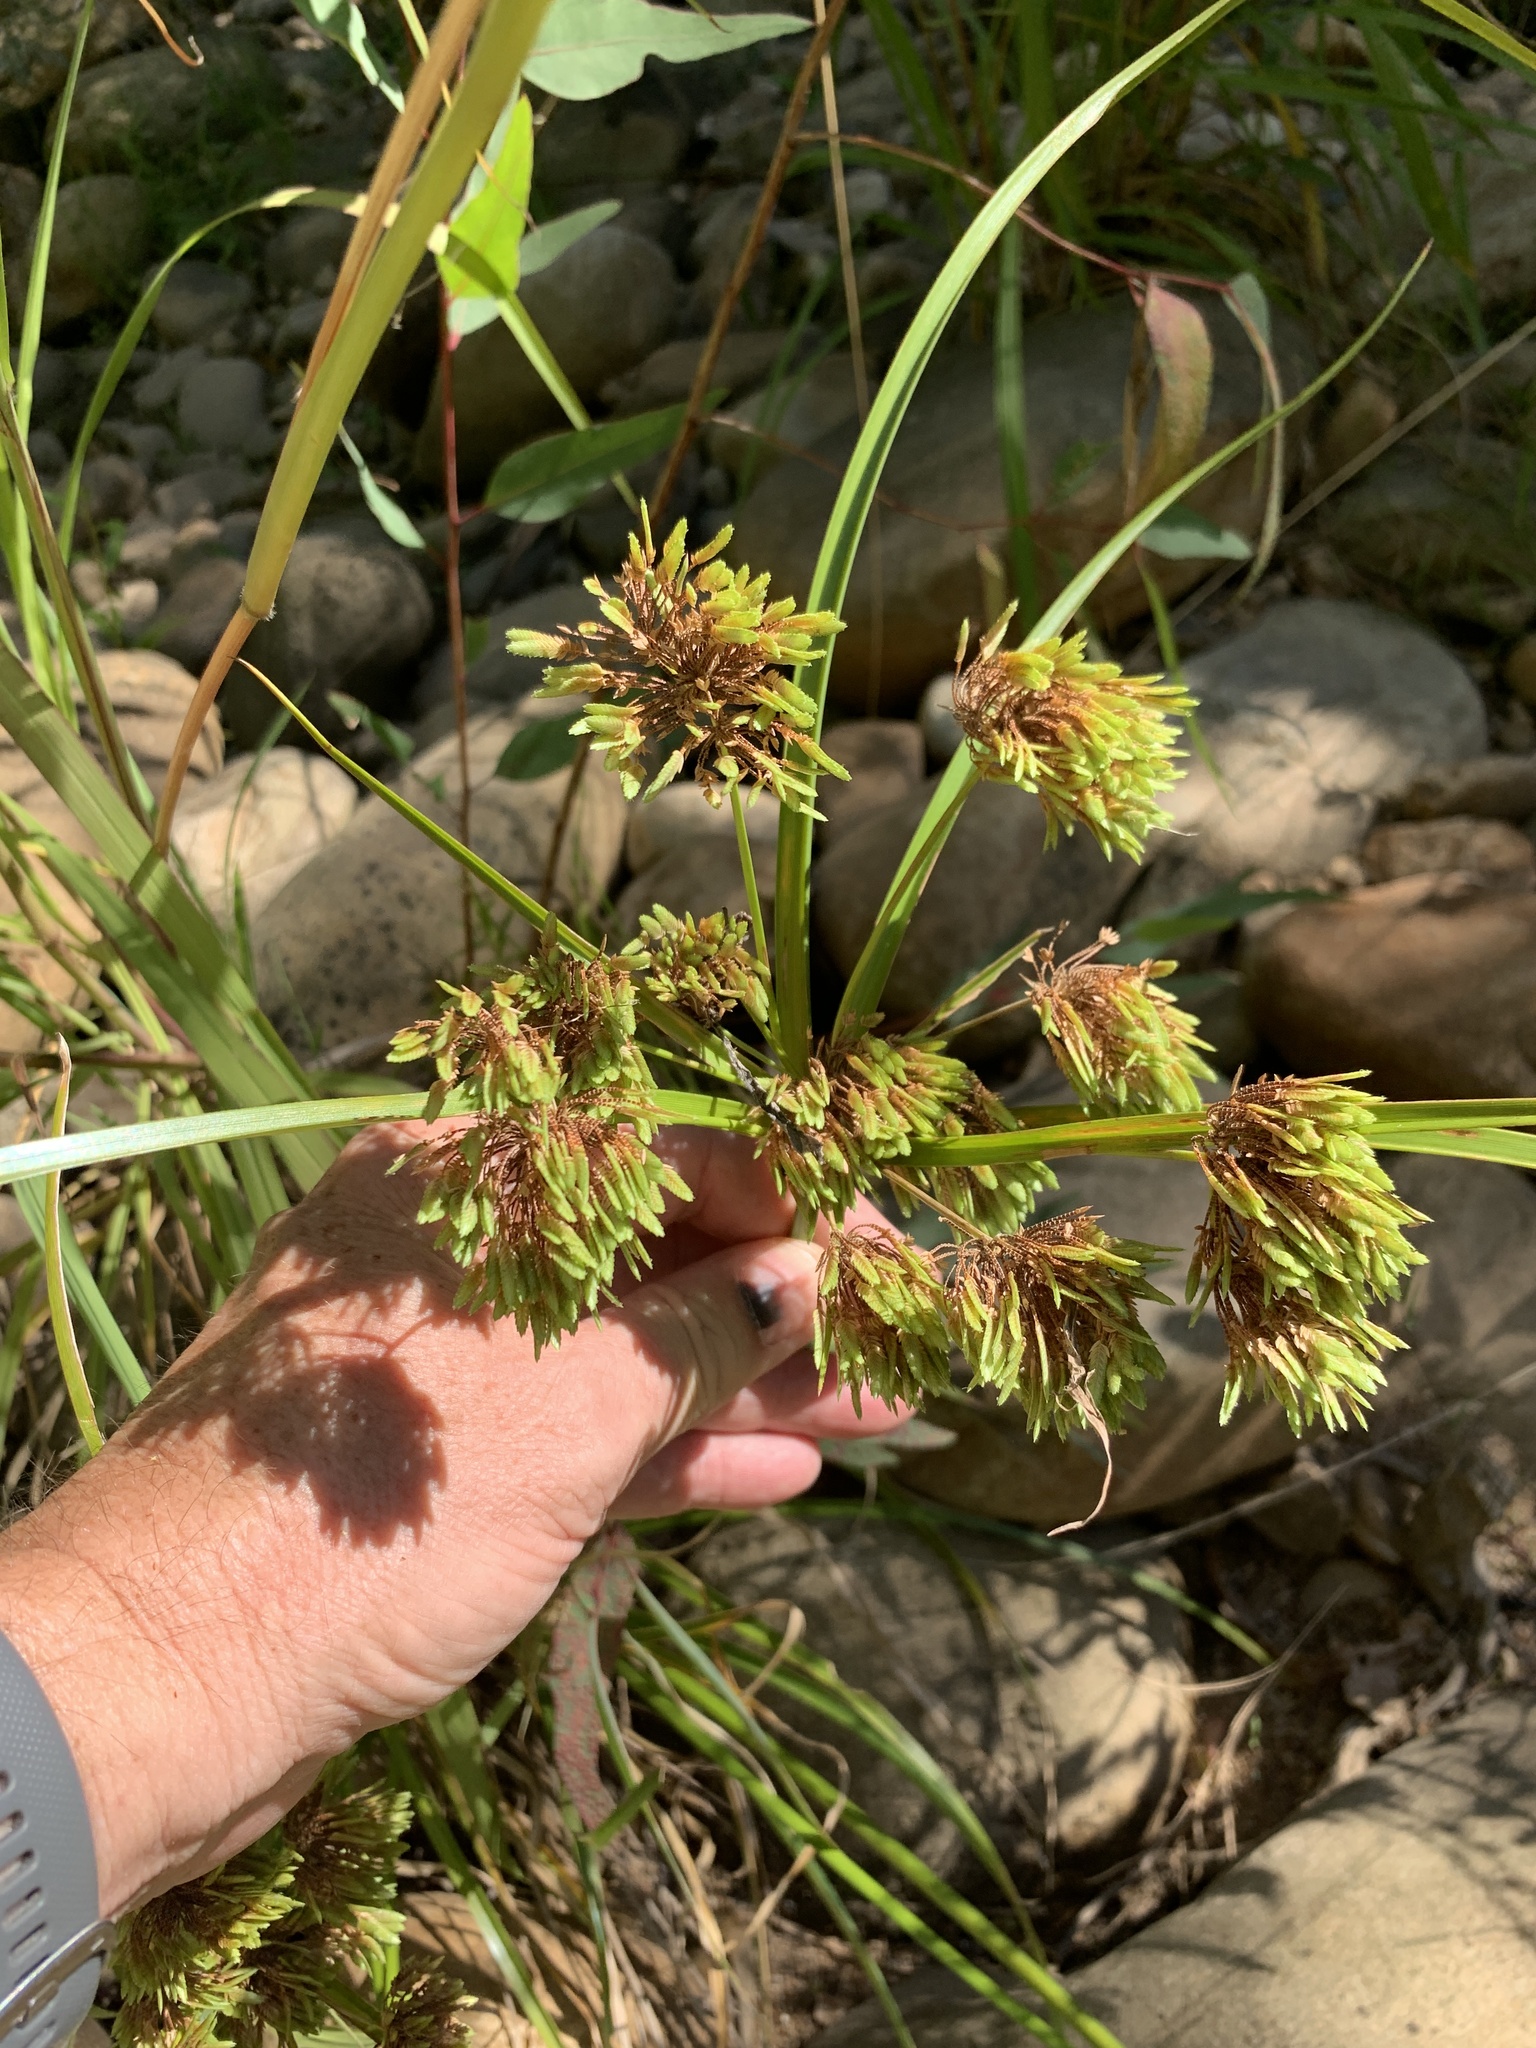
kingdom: Plantae
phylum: Tracheophyta
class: Liliopsida
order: Poales
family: Cyperaceae
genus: Cyperus
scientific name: Cyperus eragrostis
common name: Tall flatsedge
